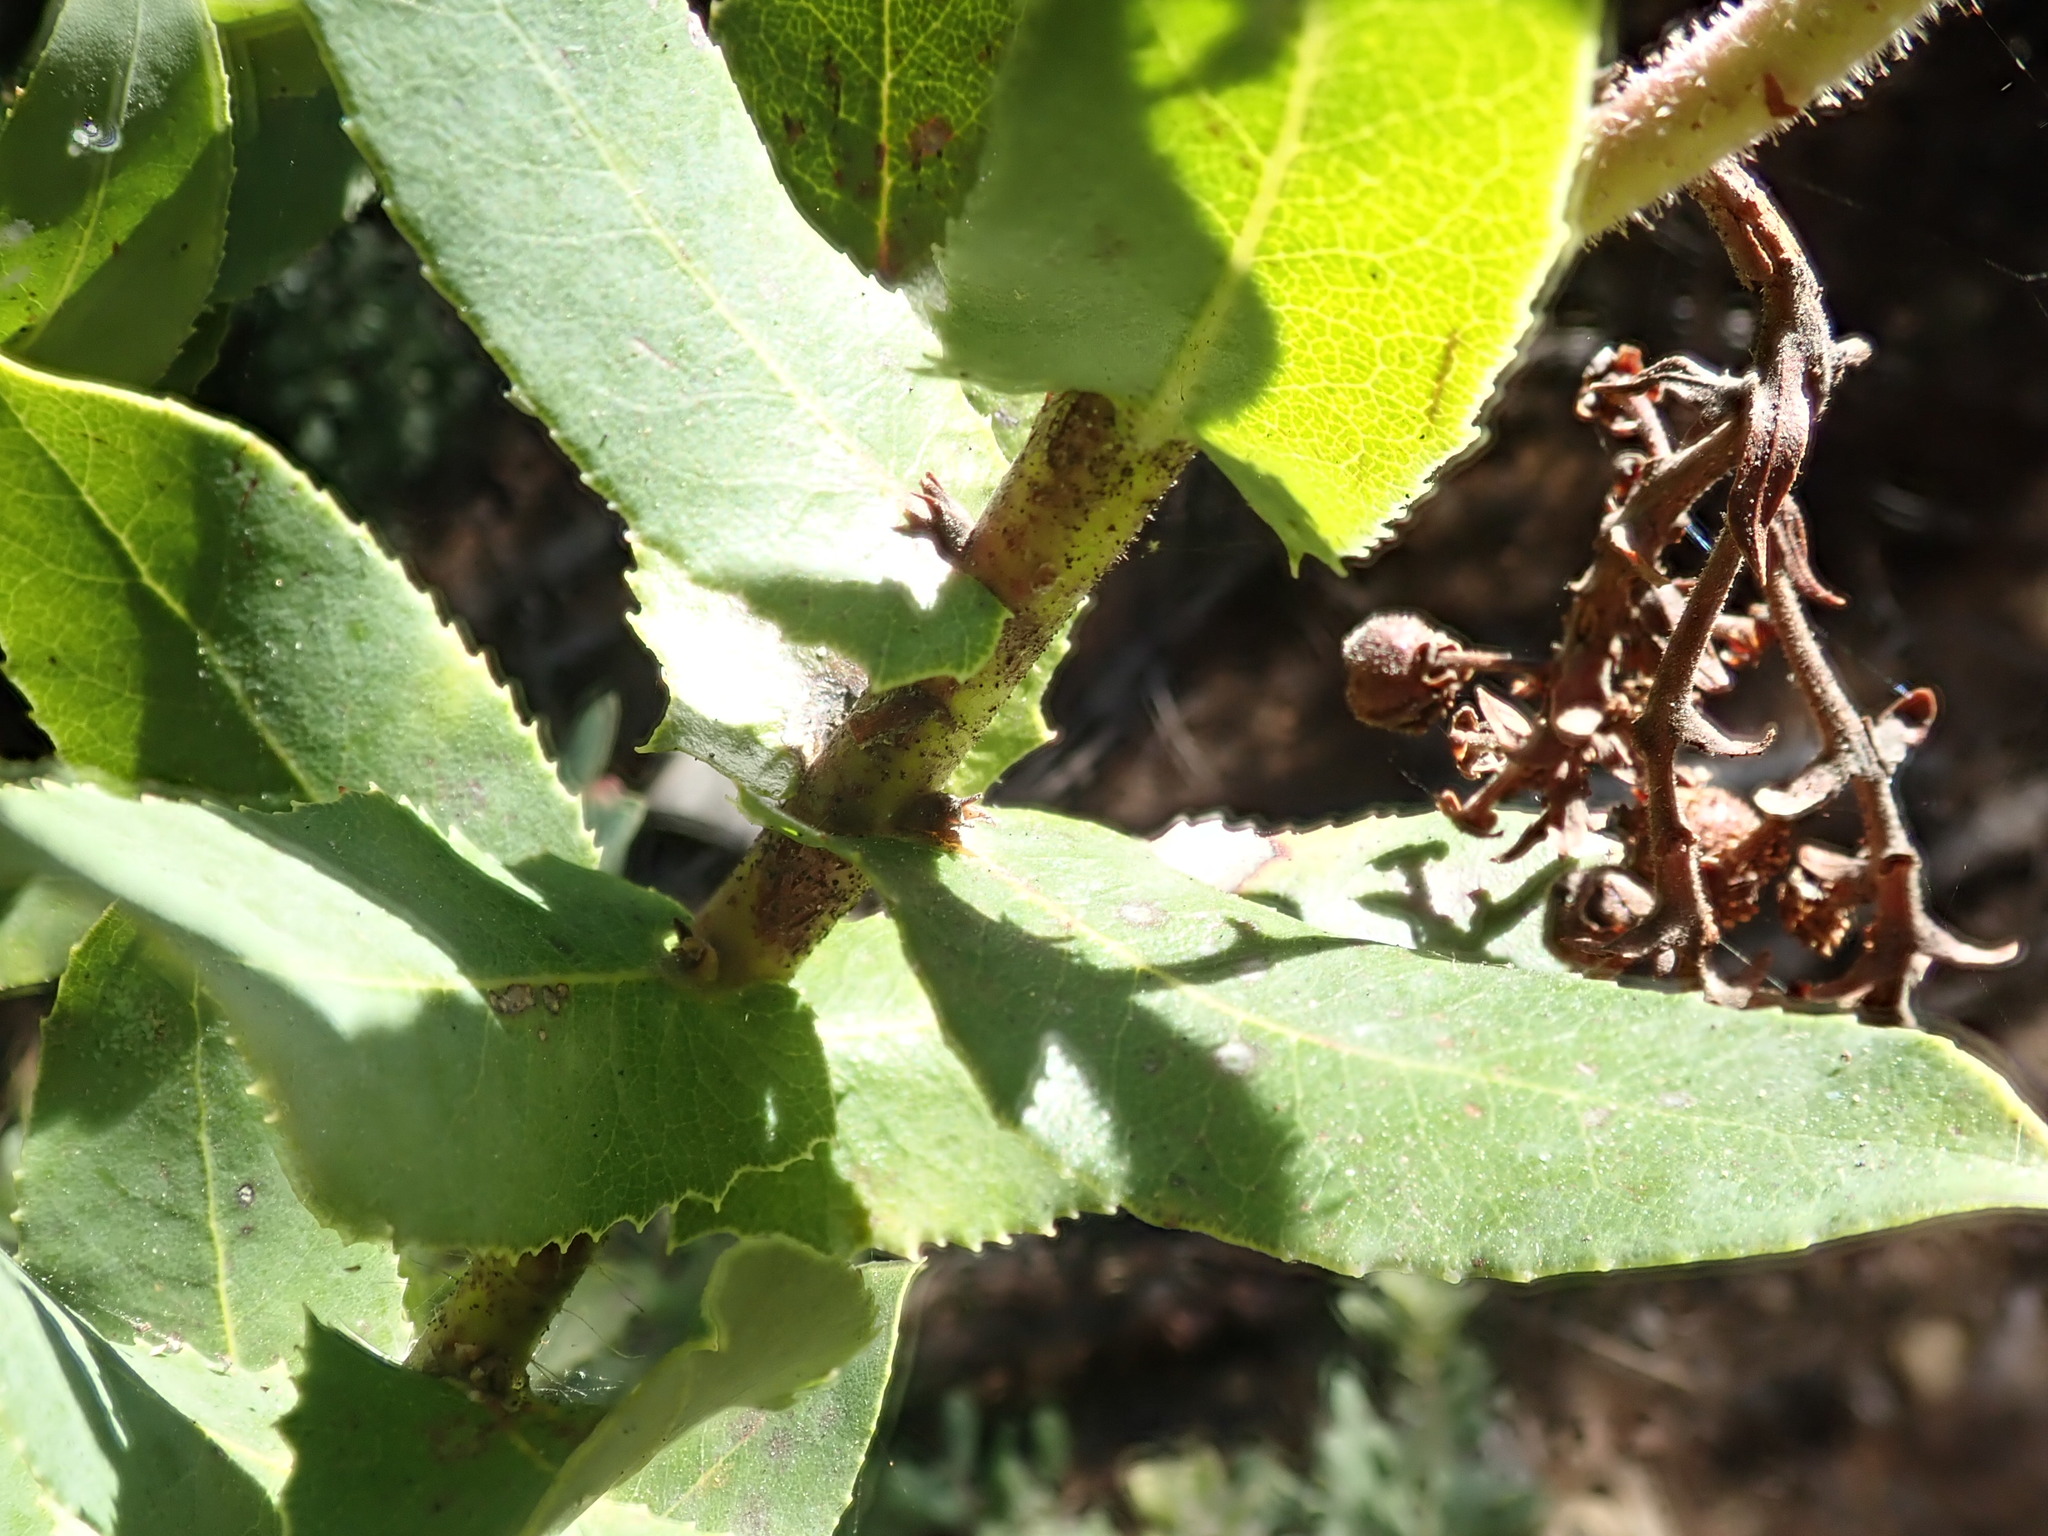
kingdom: Plantae
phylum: Tracheophyta
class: Magnoliopsida
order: Ericales
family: Ericaceae
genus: Arctostaphylos
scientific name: Arctostaphylos andersonii
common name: Santa cruz manzanita
